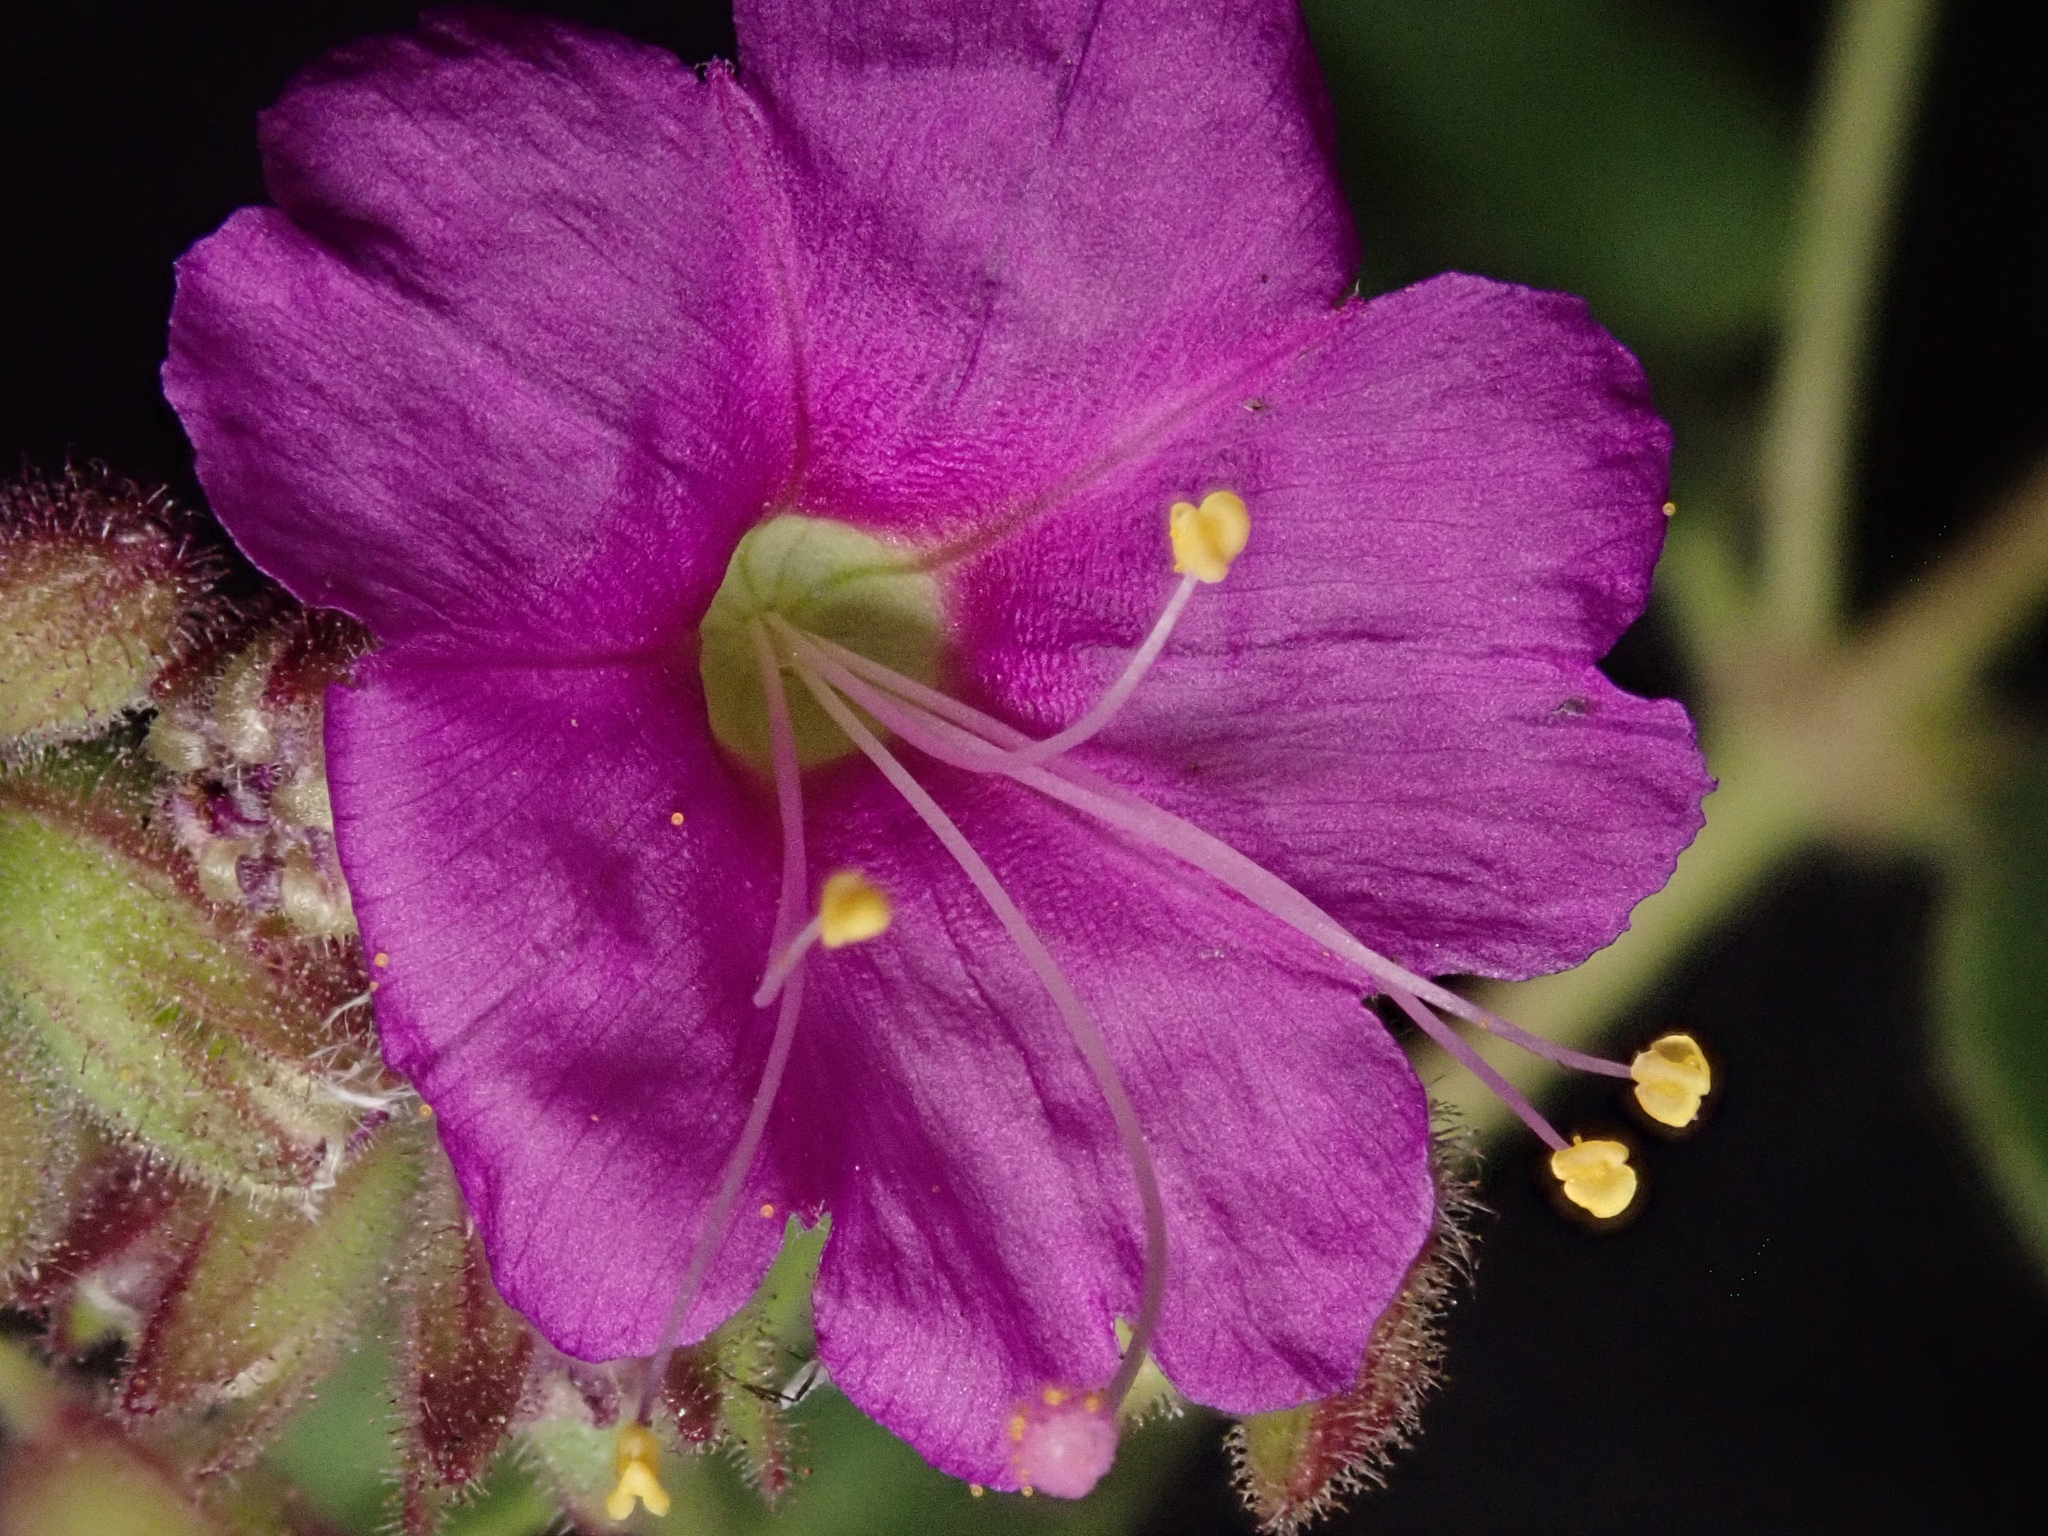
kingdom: Plantae
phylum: Tracheophyta
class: Magnoliopsida
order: Caryophyllales
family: Nyctaginaceae
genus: Mirabilis
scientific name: Mirabilis laevis
